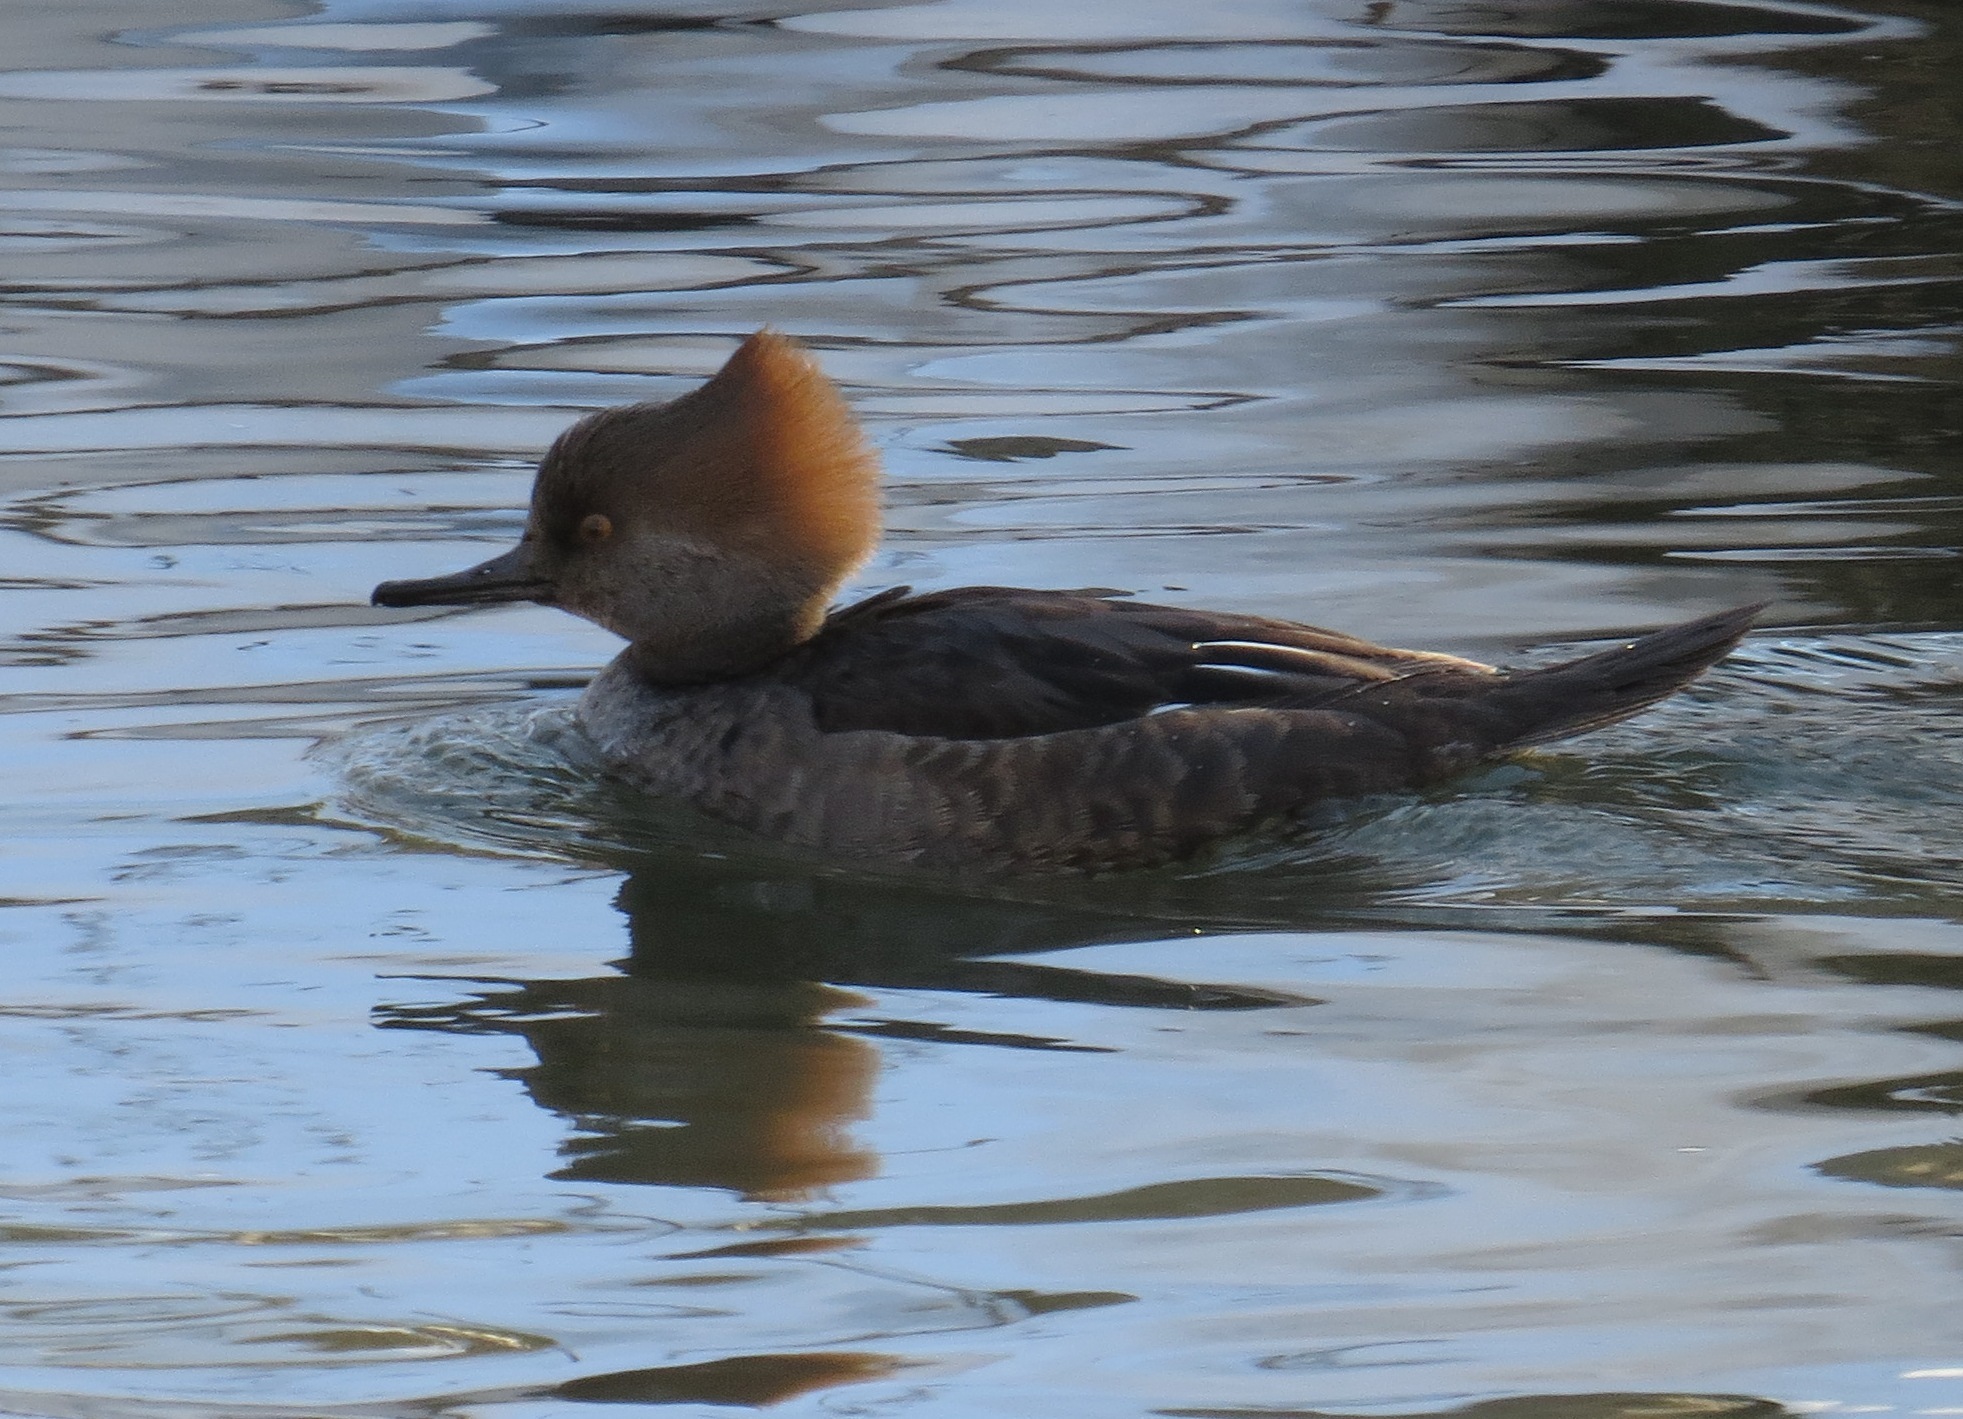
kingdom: Animalia
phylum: Chordata
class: Aves
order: Anseriformes
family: Anatidae
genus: Lophodytes
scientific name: Lophodytes cucullatus
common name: Hooded merganser
